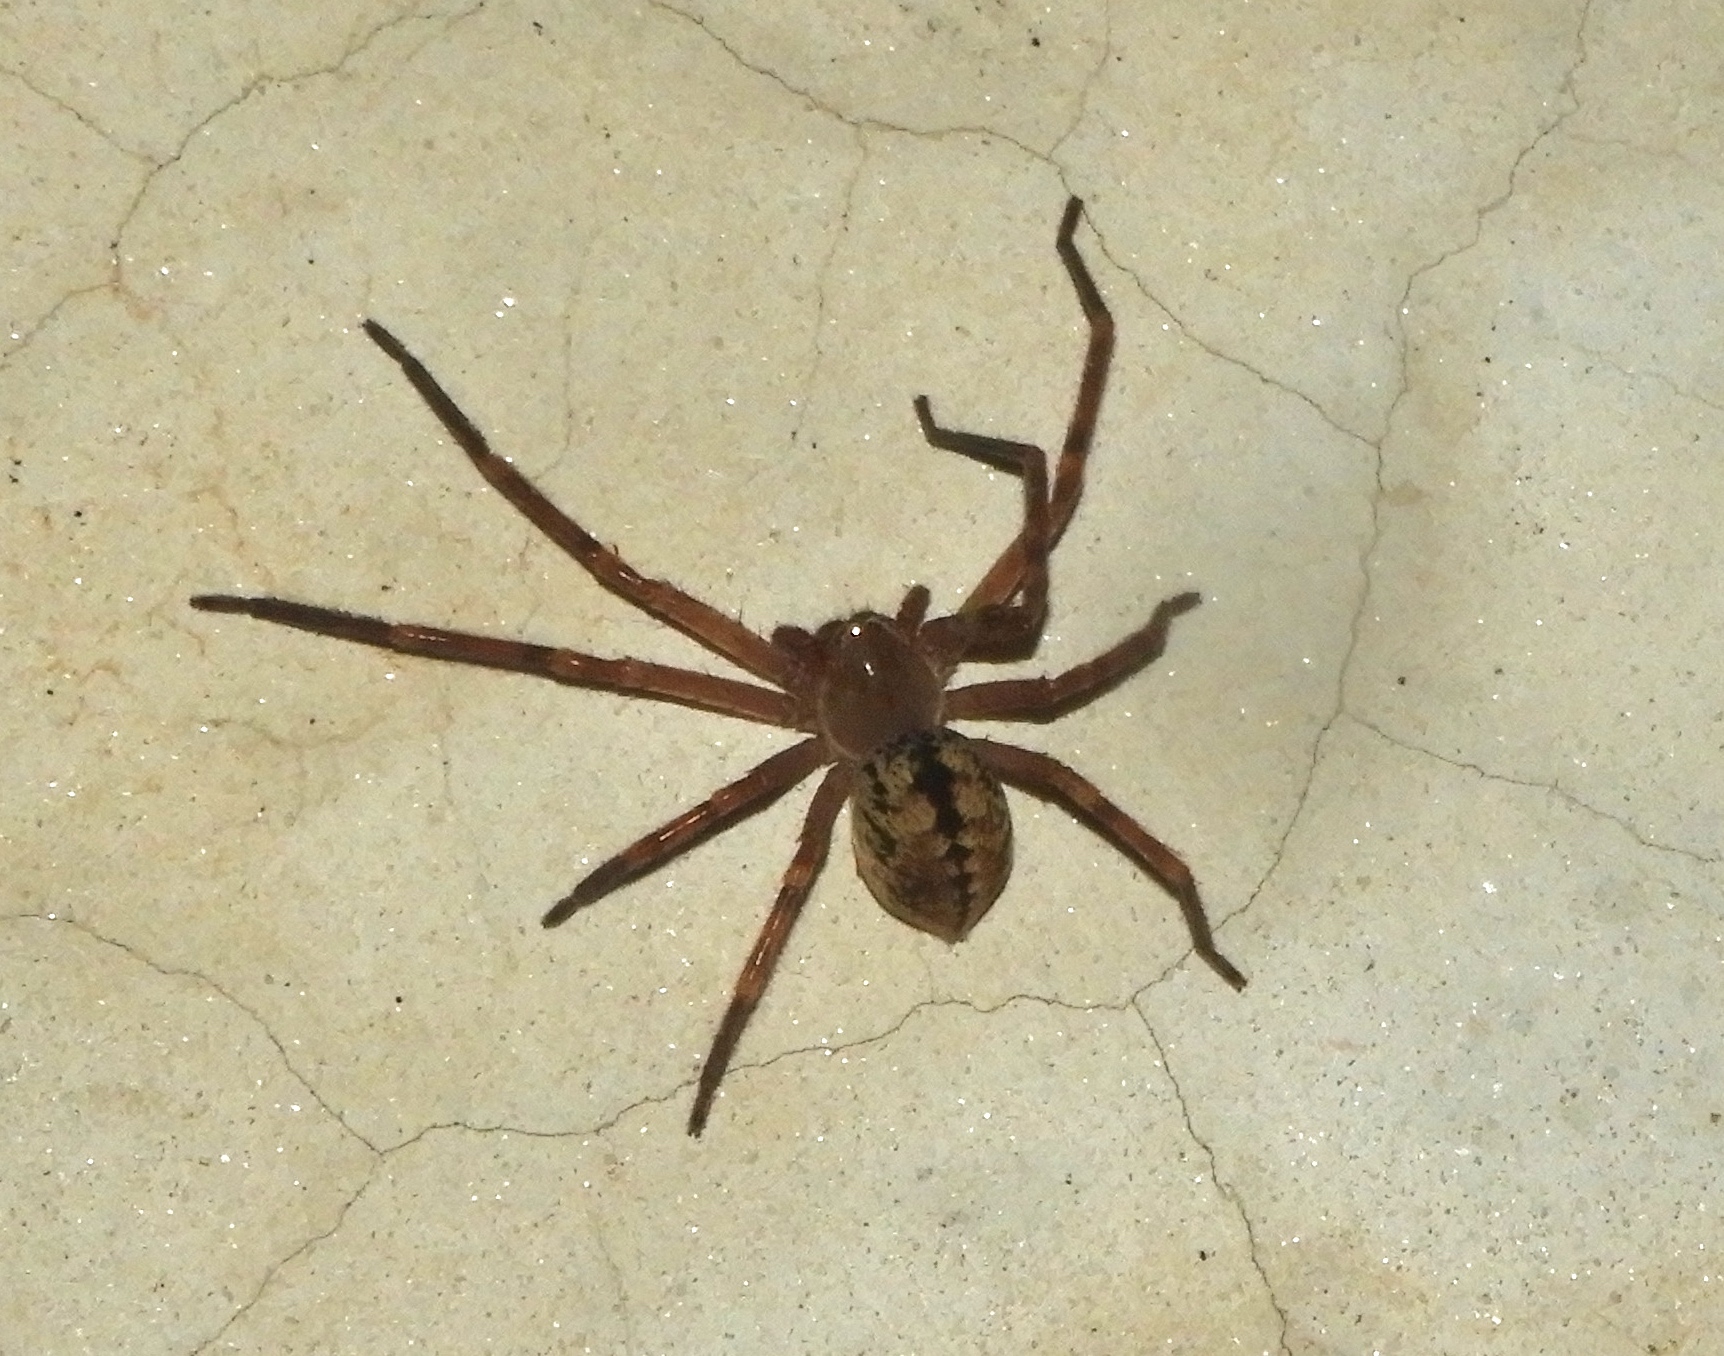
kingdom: Animalia
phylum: Arthropoda
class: Arachnida
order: Araneae
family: Sparassidae
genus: Curicaberis
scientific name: Curicaberis culiacan
